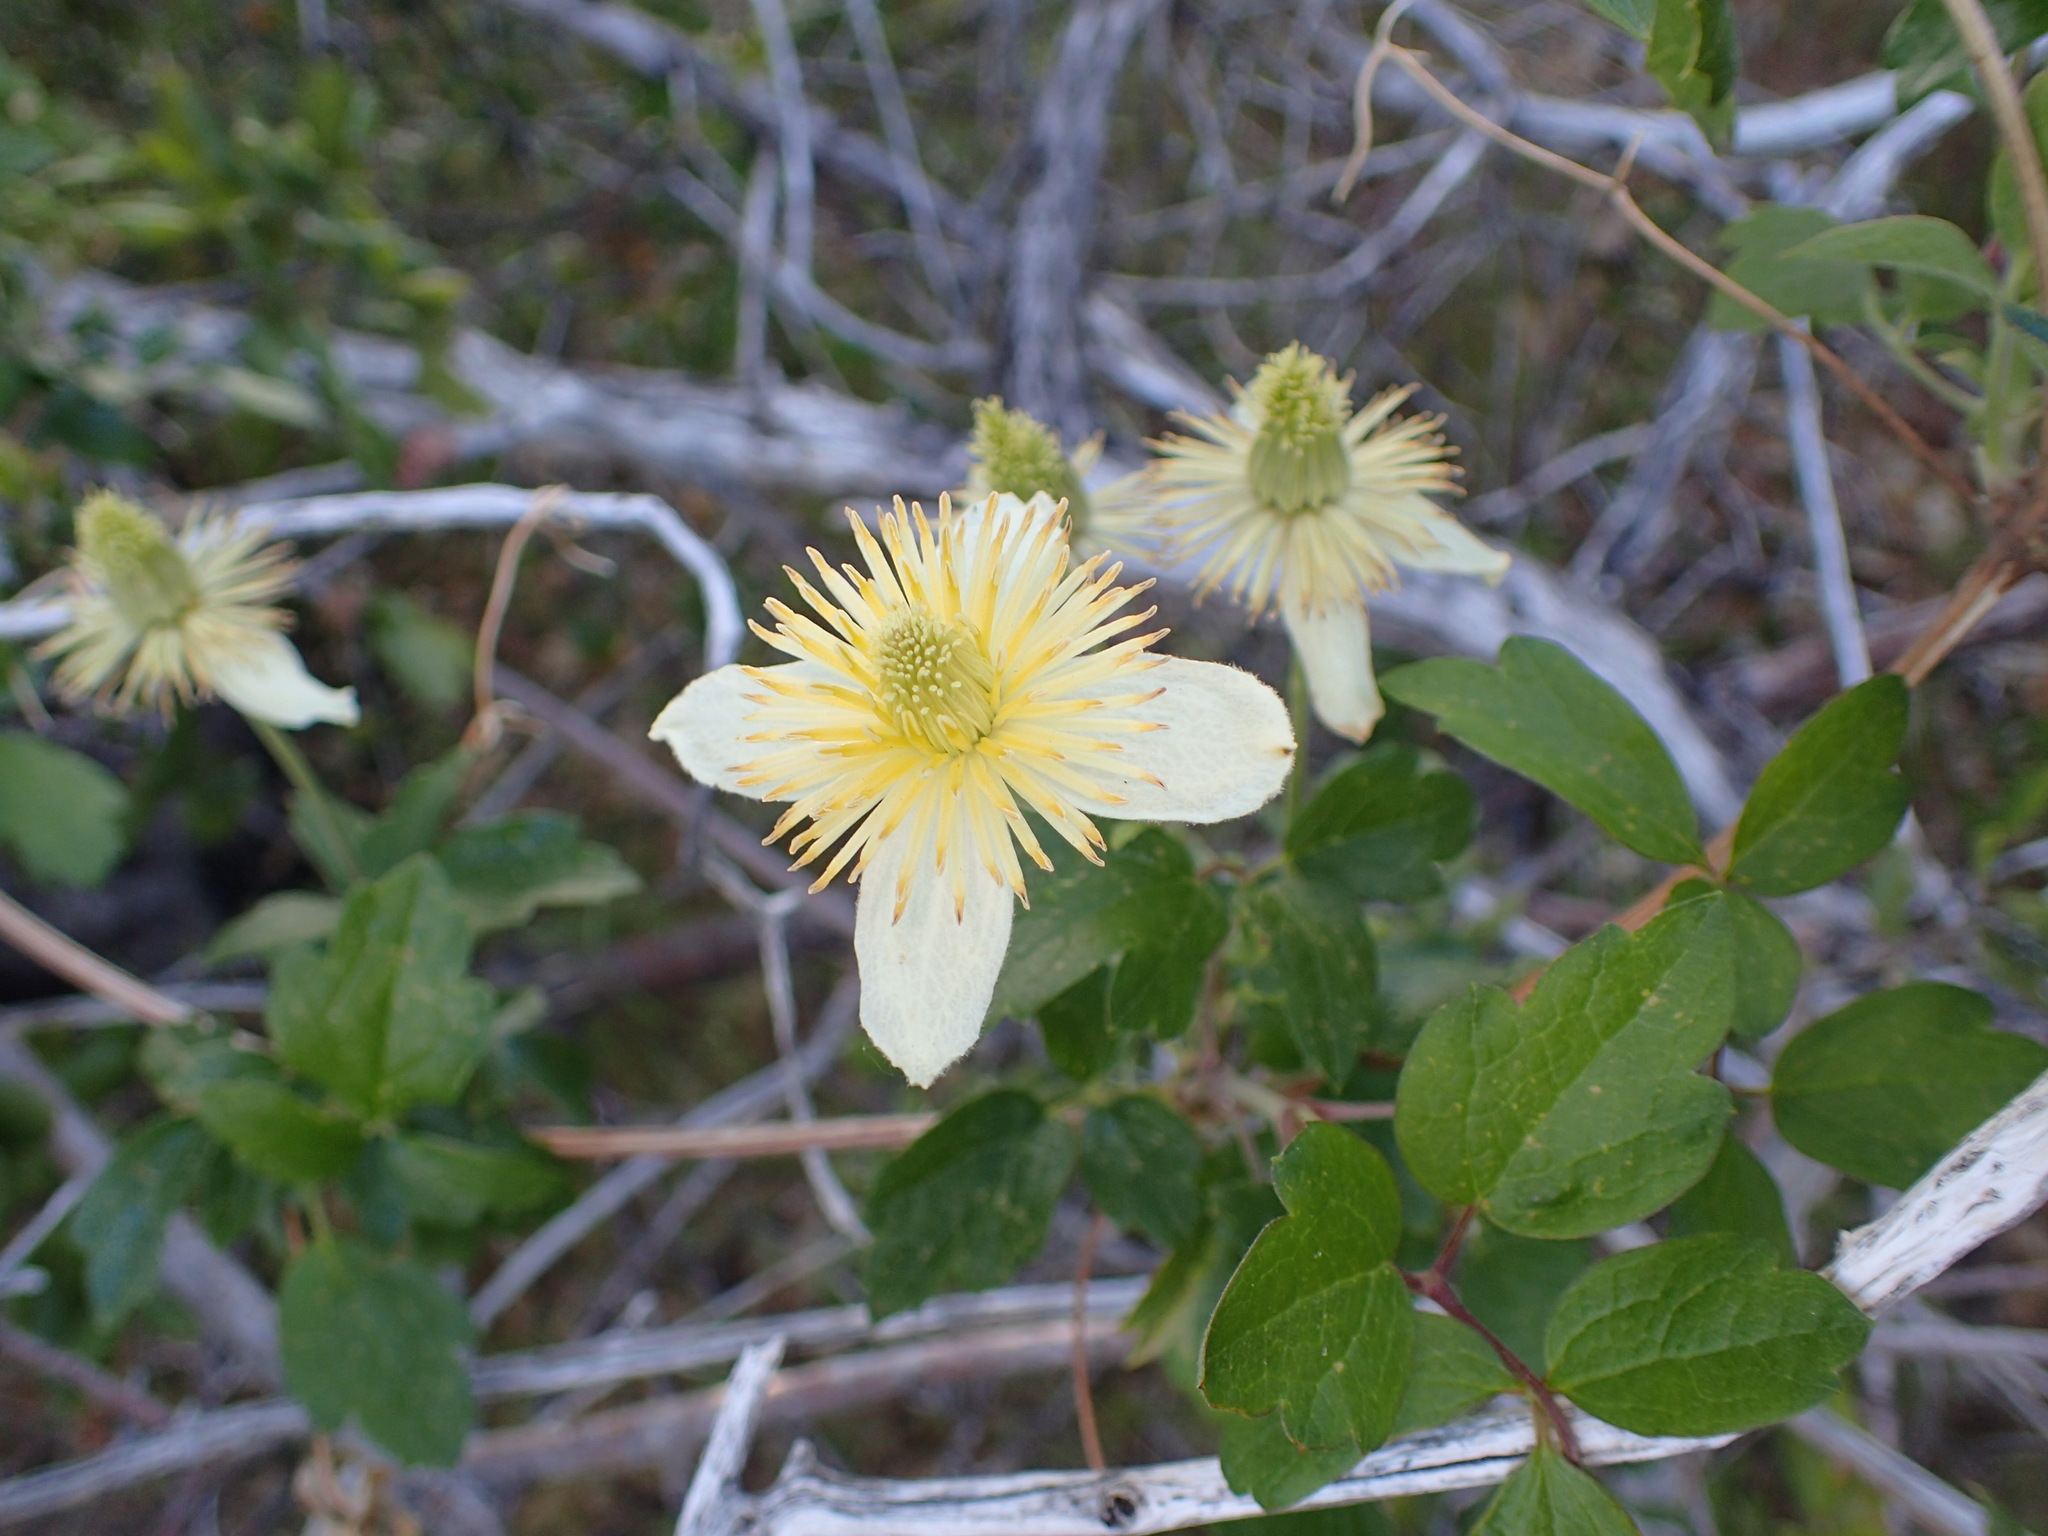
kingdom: Plantae
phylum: Tracheophyta
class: Magnoliopsida
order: Ranunculales
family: Ranunculaceae
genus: Clematis
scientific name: Clematis lasiantha
